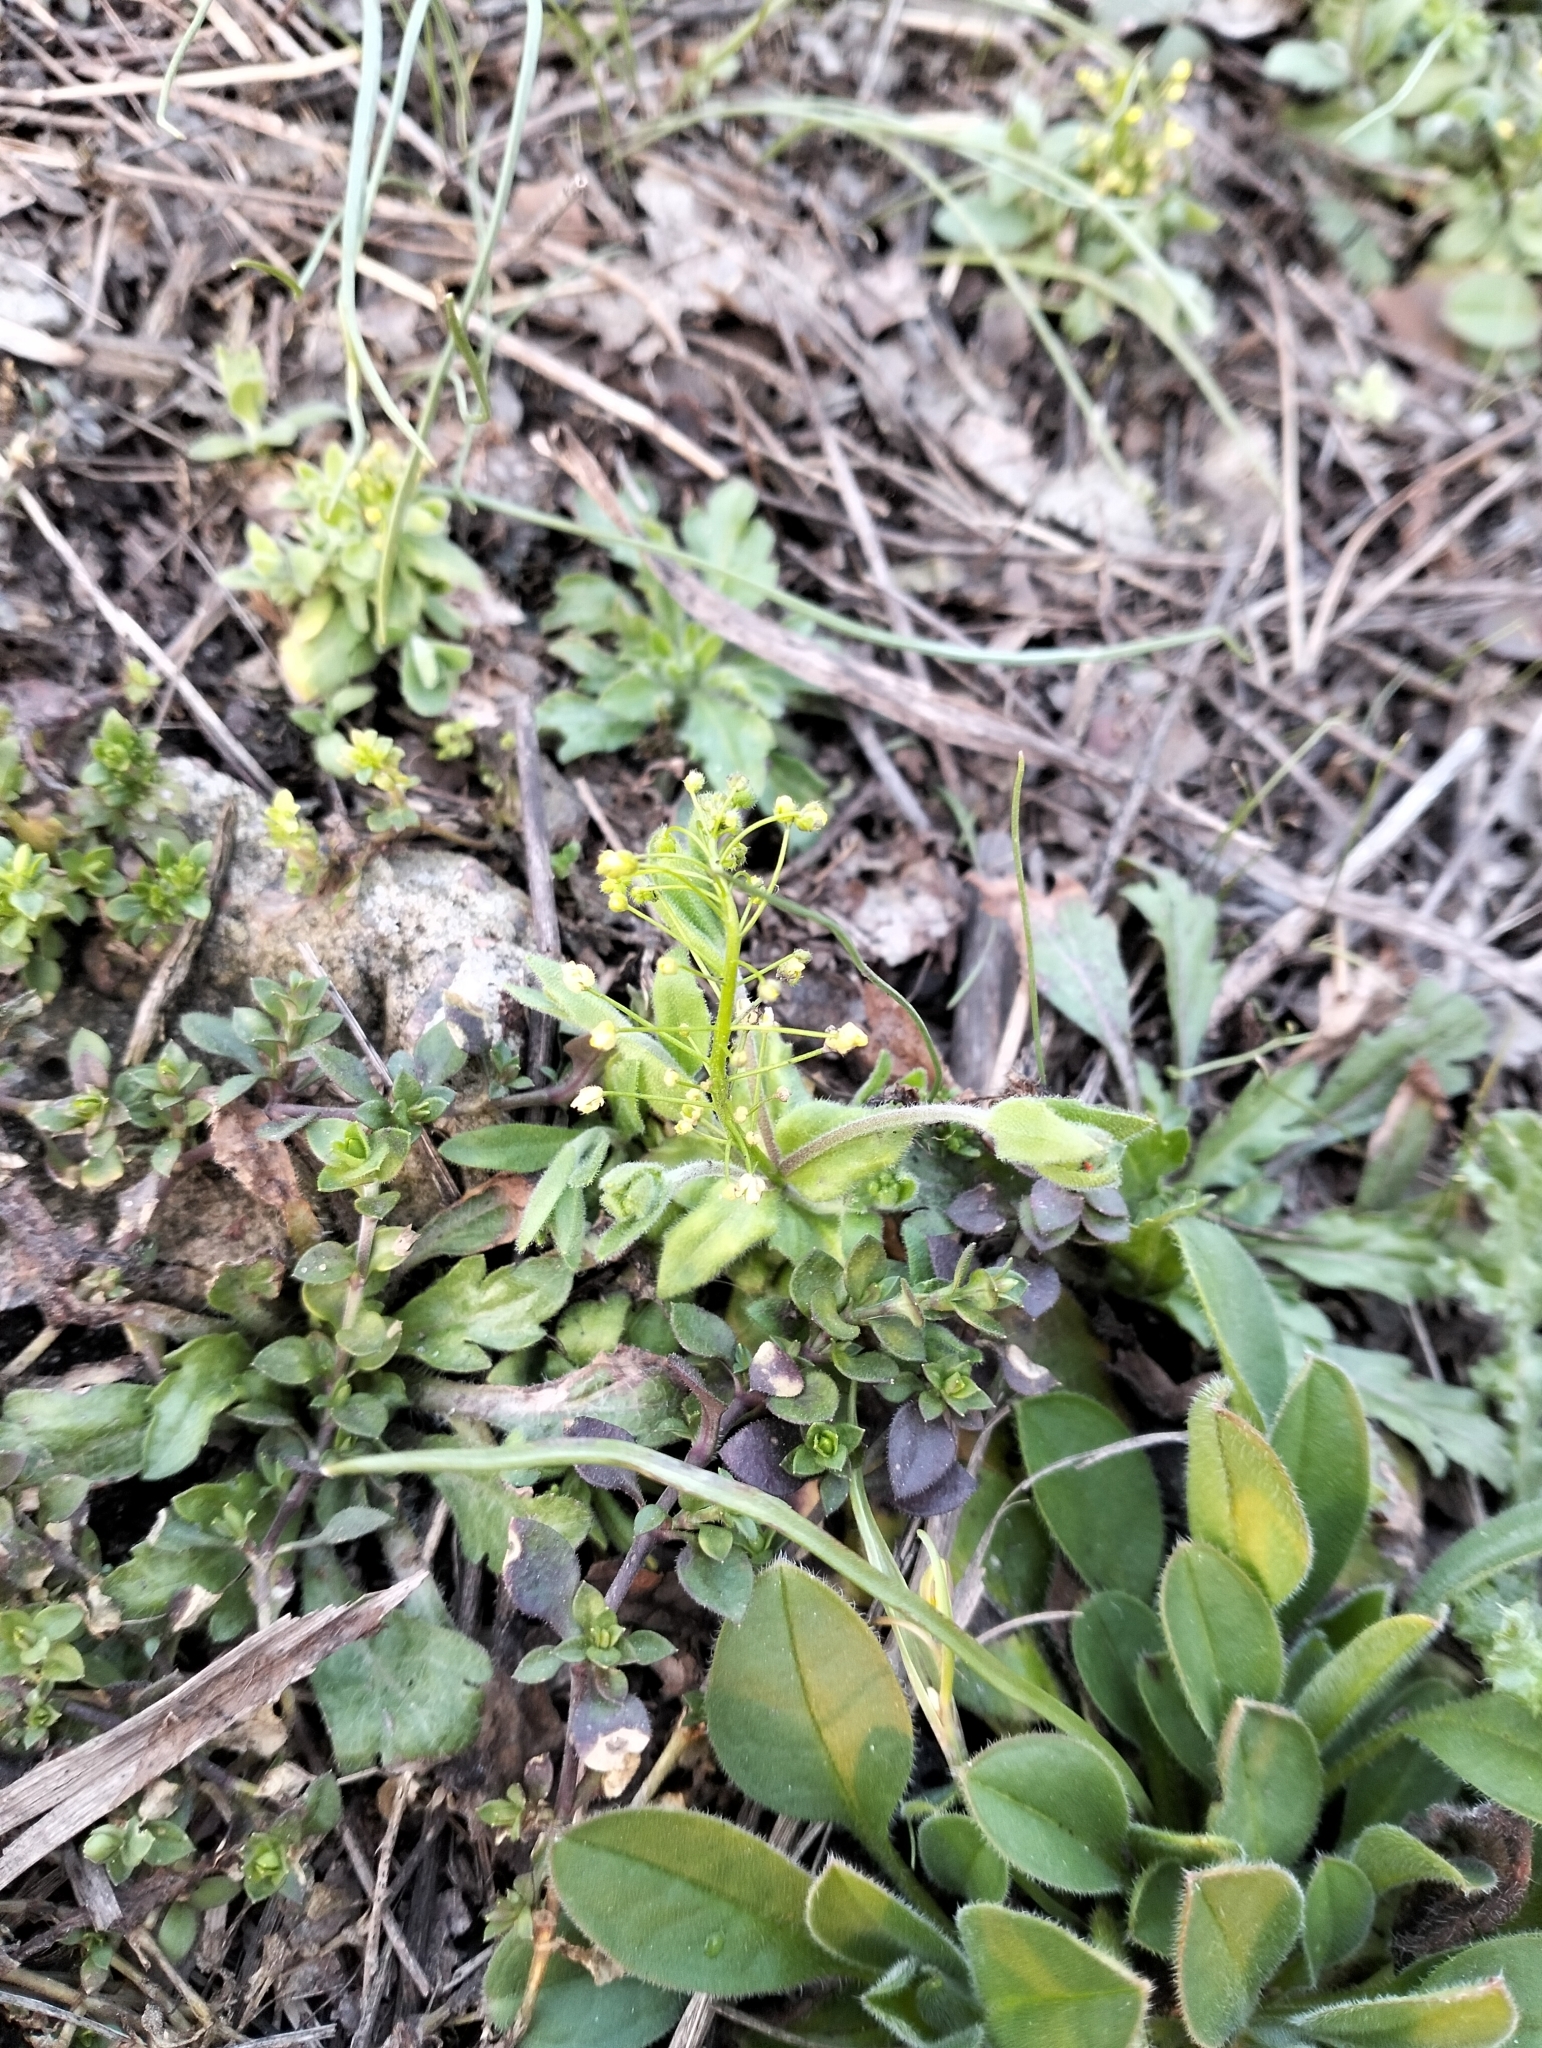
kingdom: Plantae
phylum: Tracheophyta
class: Magnoliopsida
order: Brassicales
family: Brassicaceae
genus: Draba
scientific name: Draba nemorosa
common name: Wood whitlow-grass
